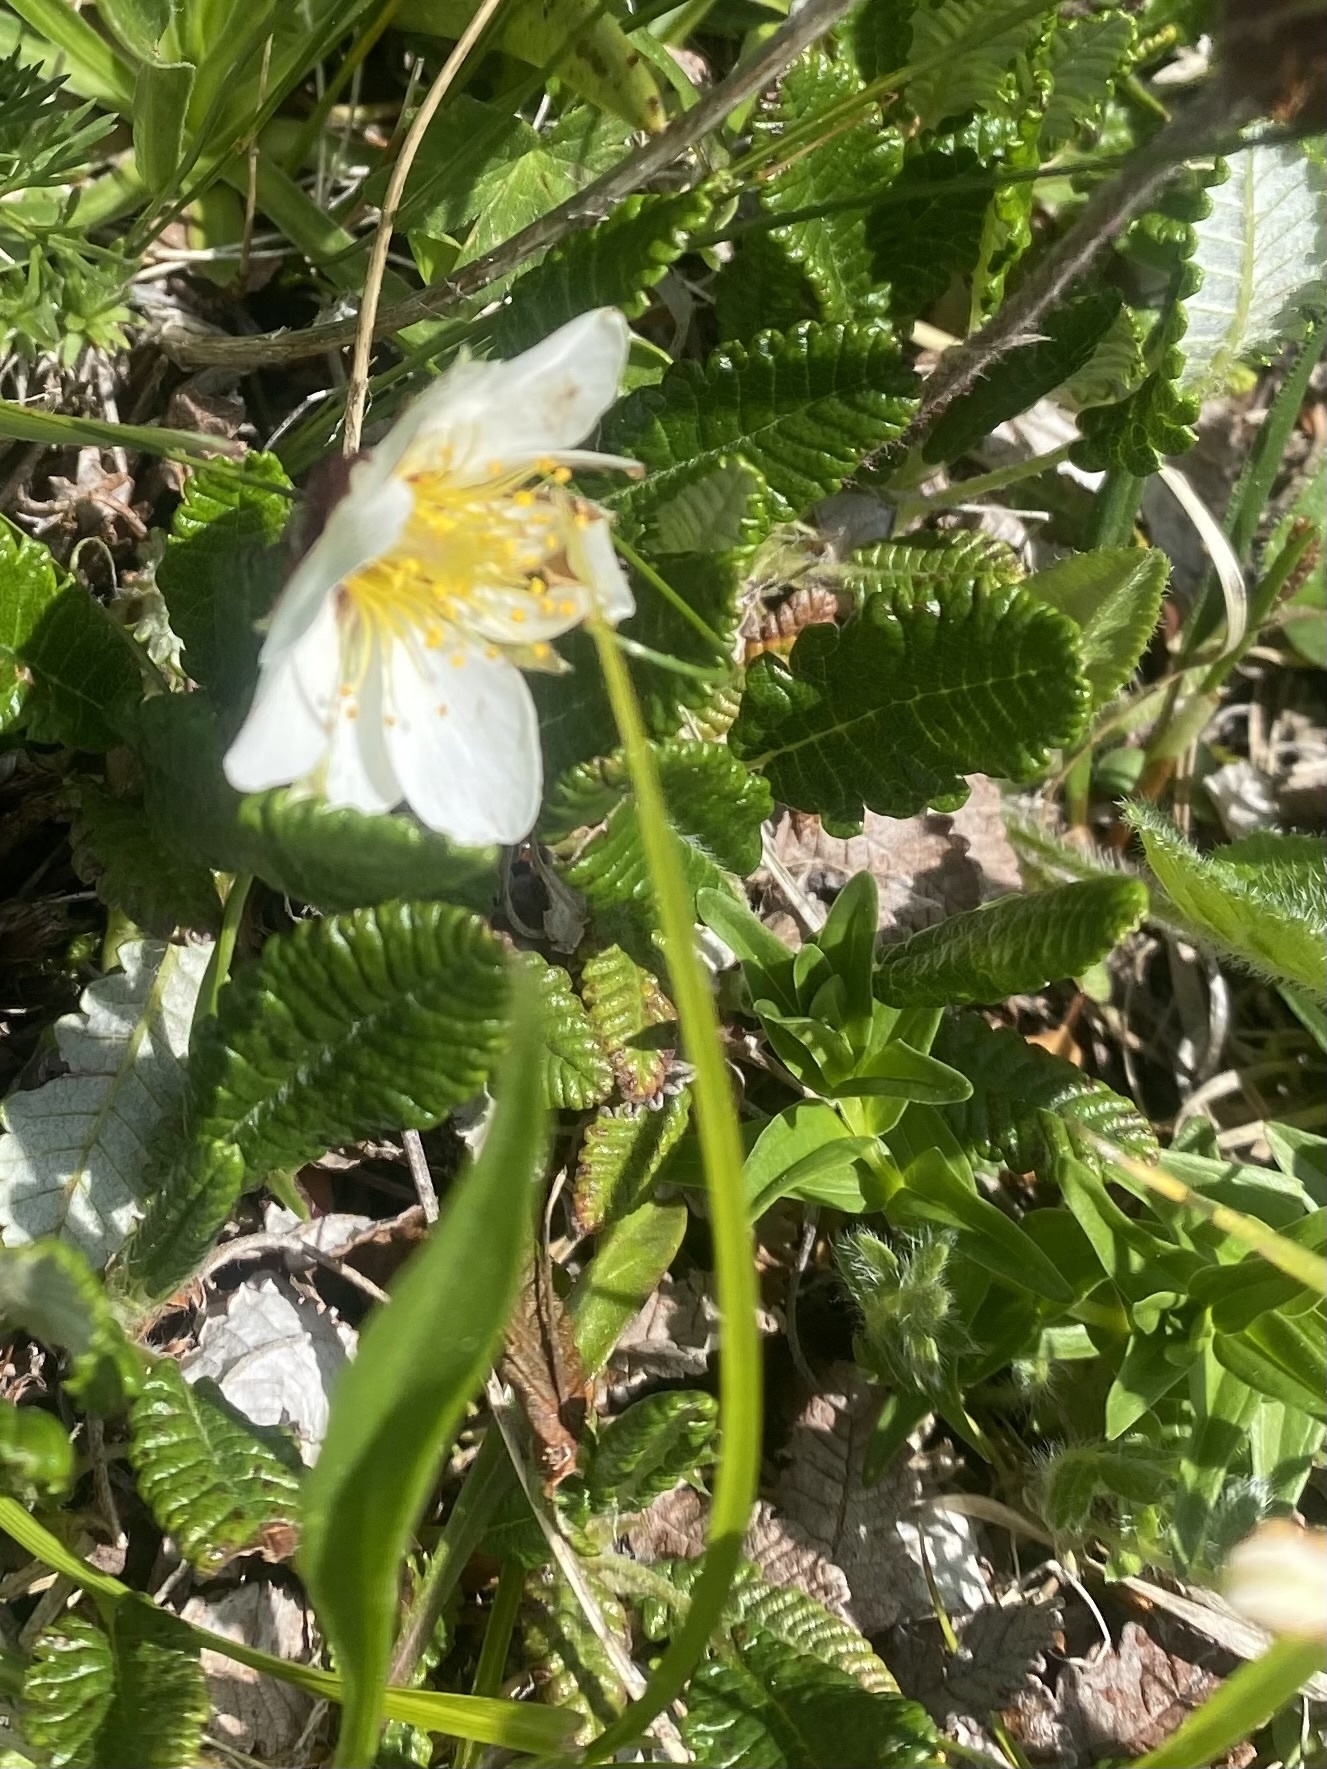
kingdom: Plantae
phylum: Tracheophyta
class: Magnoliopsida
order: Rosales
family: Rosaceae
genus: Dryas
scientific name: Dryas octopetala
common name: Eight-petal mountain-avens
